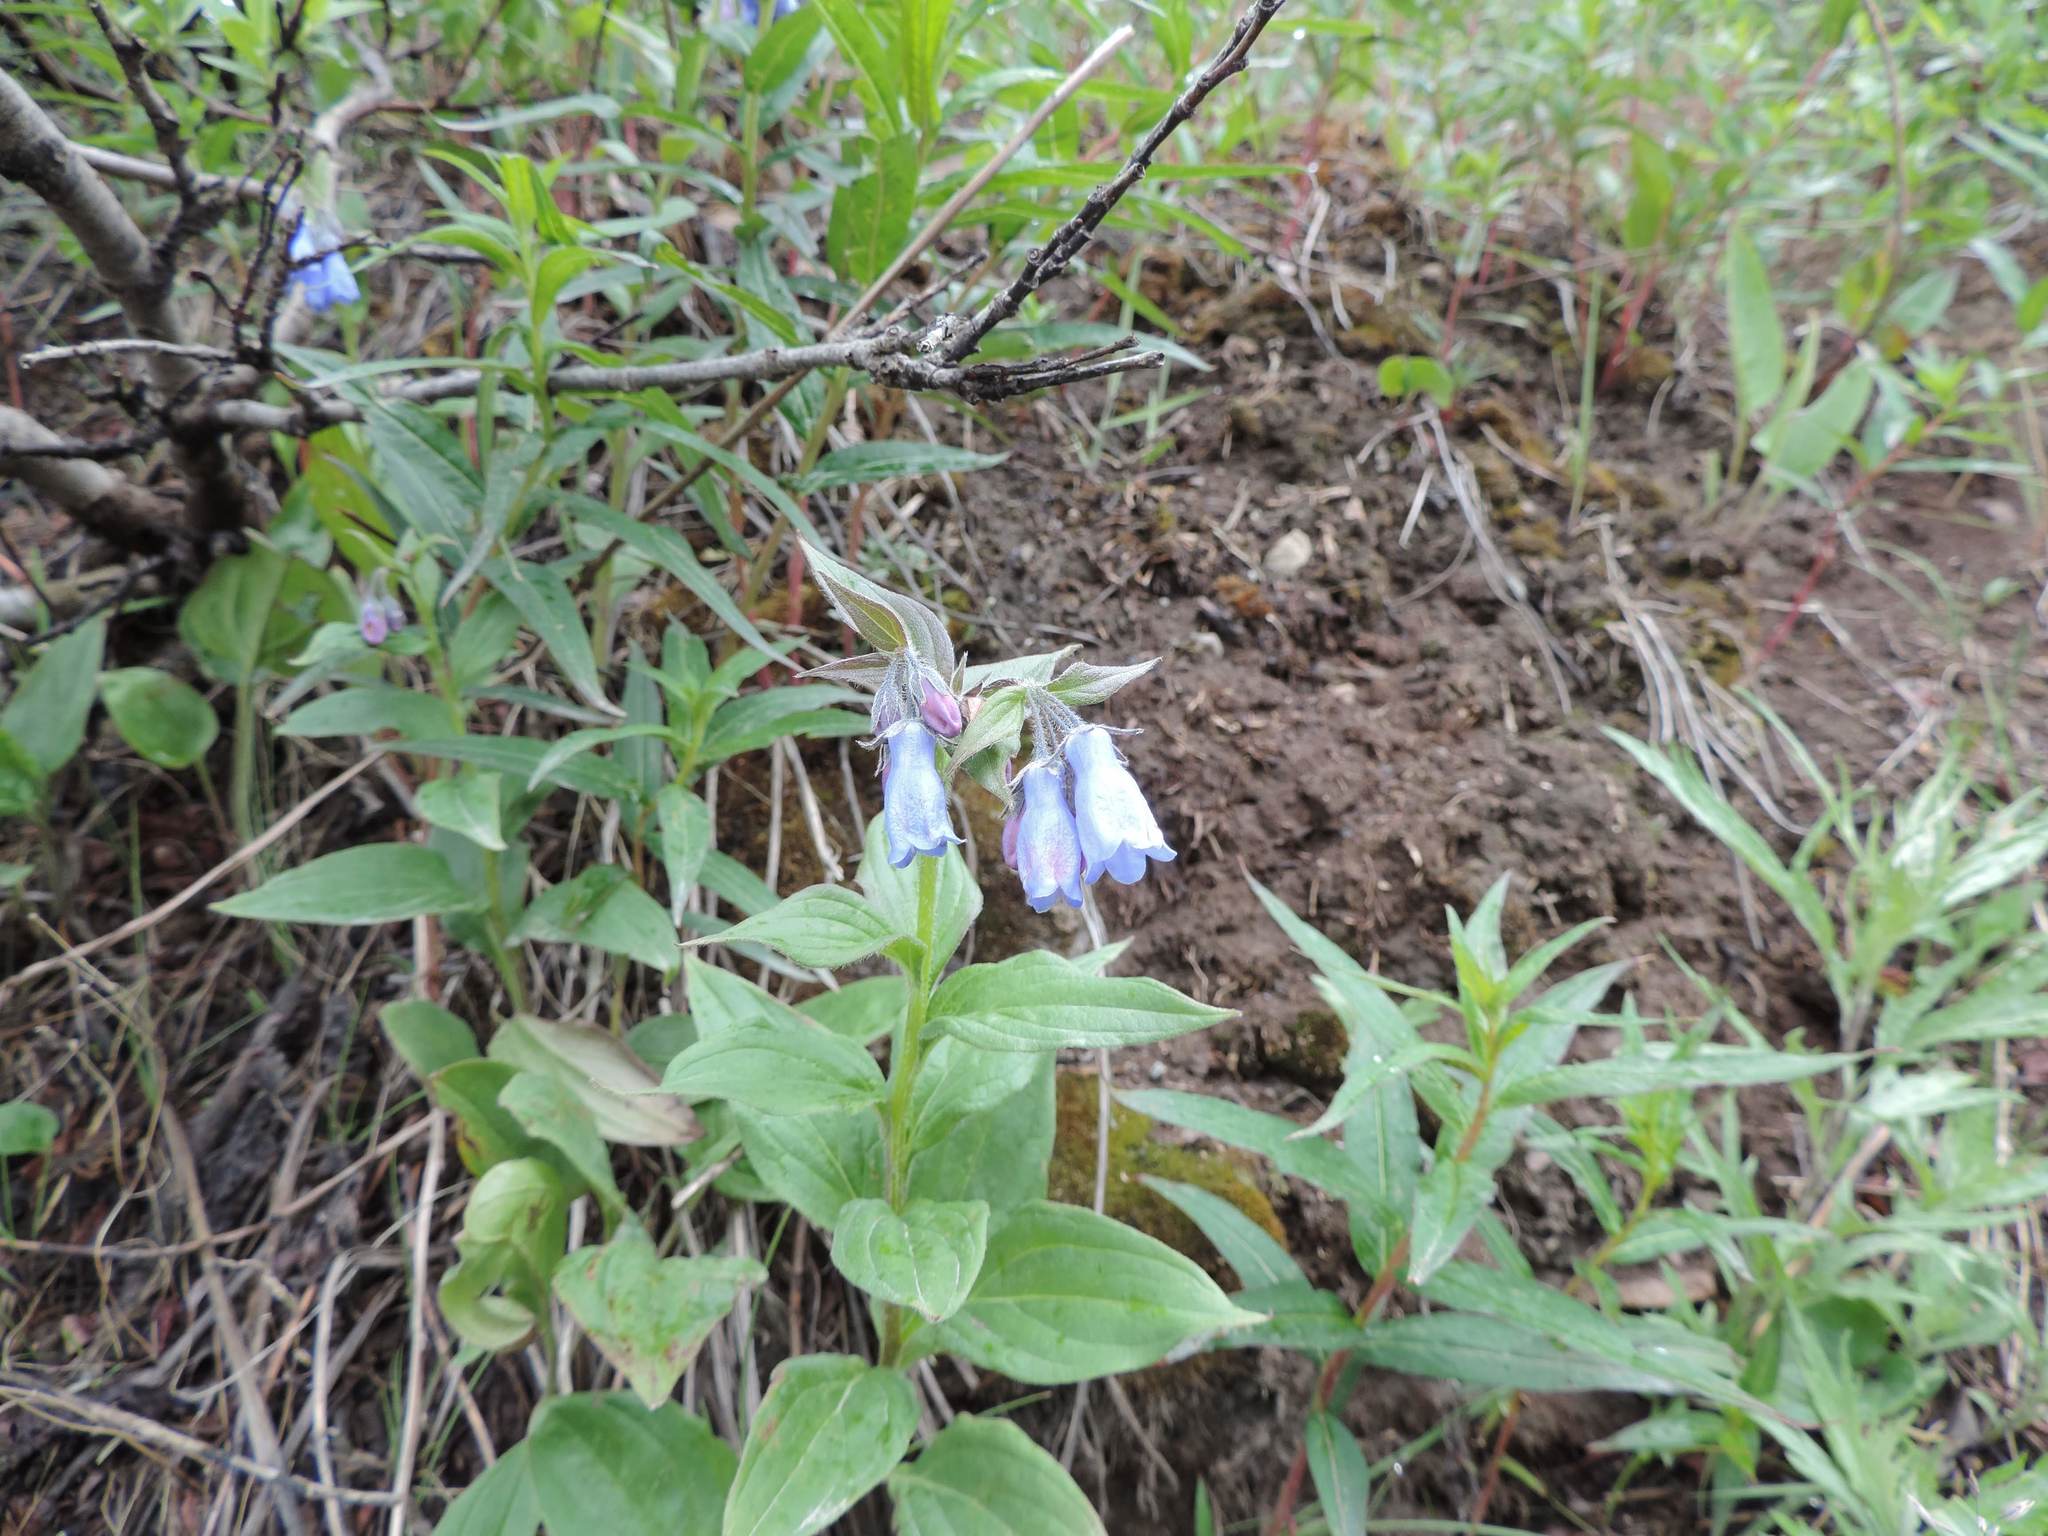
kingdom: Plantae
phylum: Tracheophyta
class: Magnoliopsida
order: Boraginales
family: Boraginaceae
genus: Mertensia
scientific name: Mertensia paniculata
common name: Panicled bluebells
